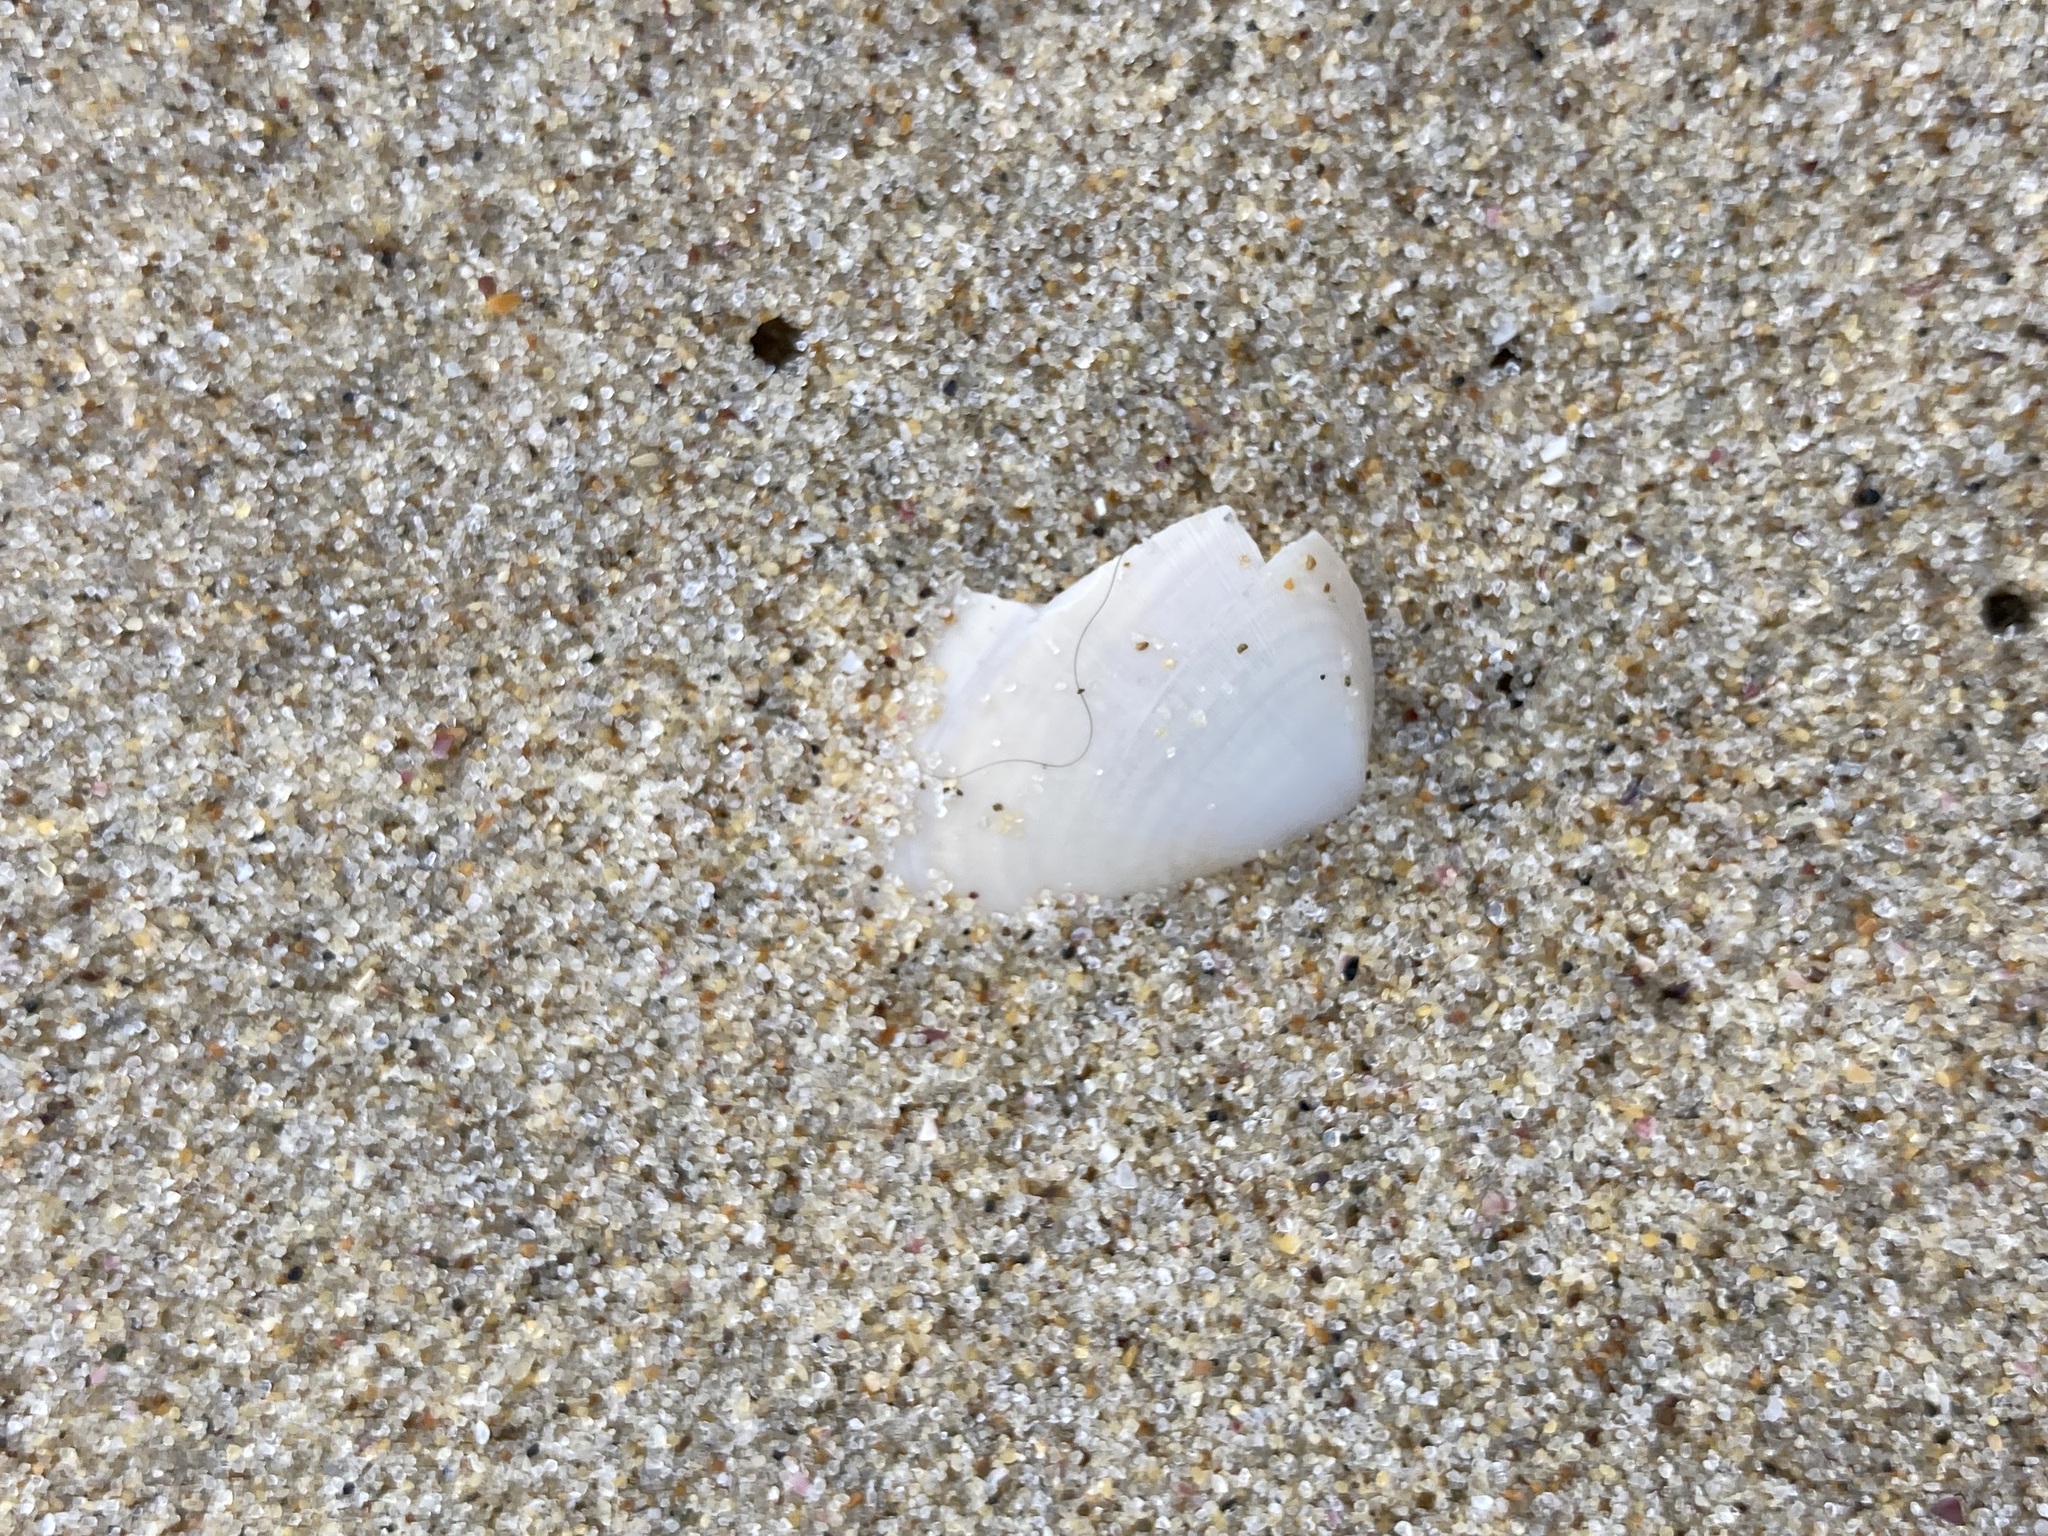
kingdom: Animalia
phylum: Mollusca
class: Bivalvia
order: Venerida
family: Mesodesmatidae
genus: Paphies
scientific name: Paphies angusta
